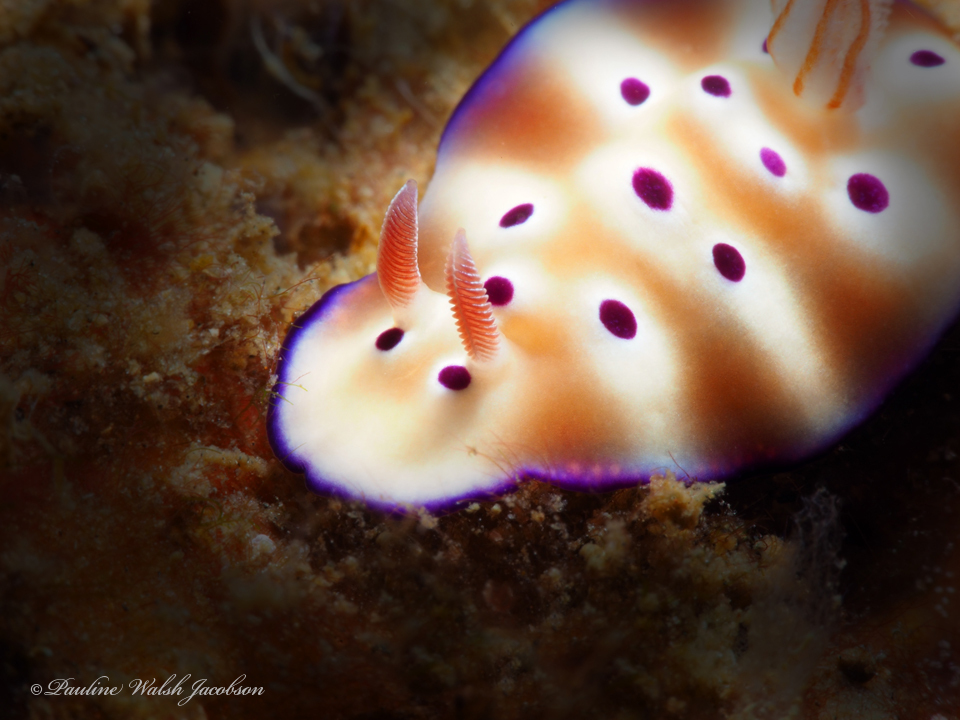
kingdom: Animalia
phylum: Mollusca
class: Gastropoda
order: Nudibranchia
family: Chromodorididae
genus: Hypselodoris
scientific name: Hypselodoris tryoni
